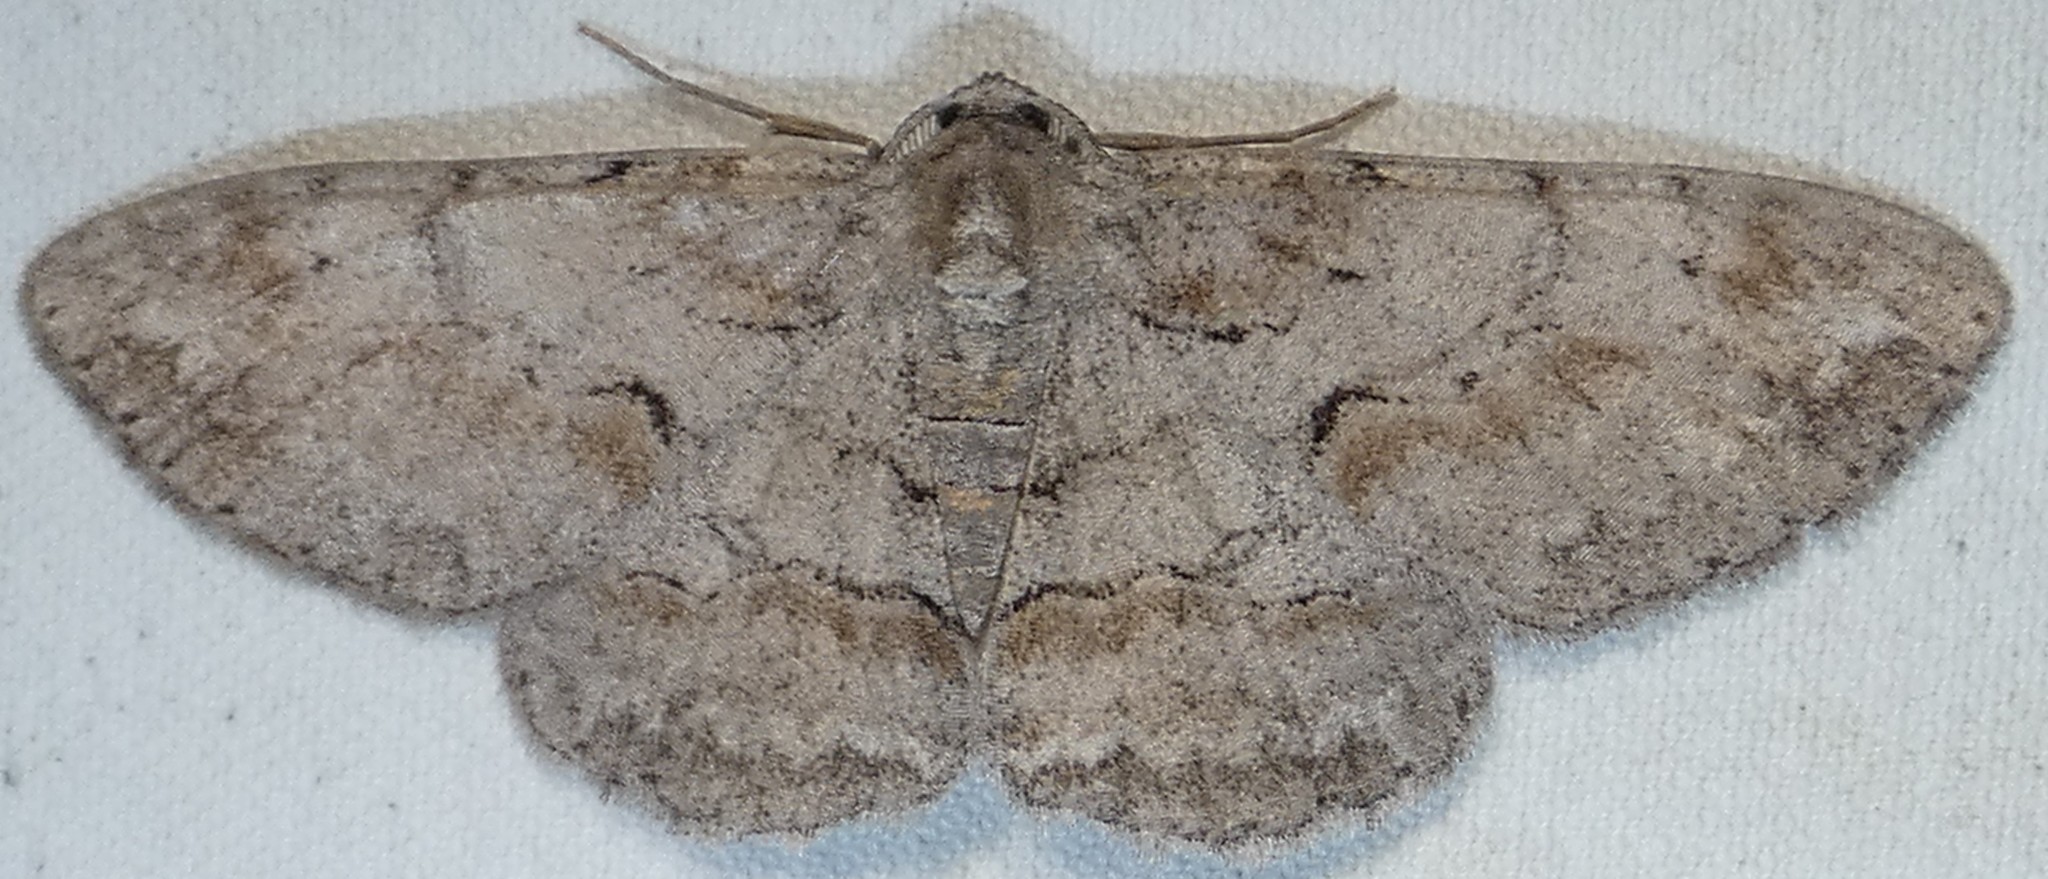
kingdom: Animalia
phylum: Arthropoda
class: Insecta
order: Lepidoptera
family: Geometridae
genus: Iridopsis
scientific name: Iridopsis vellivolata
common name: Large purplish gray
